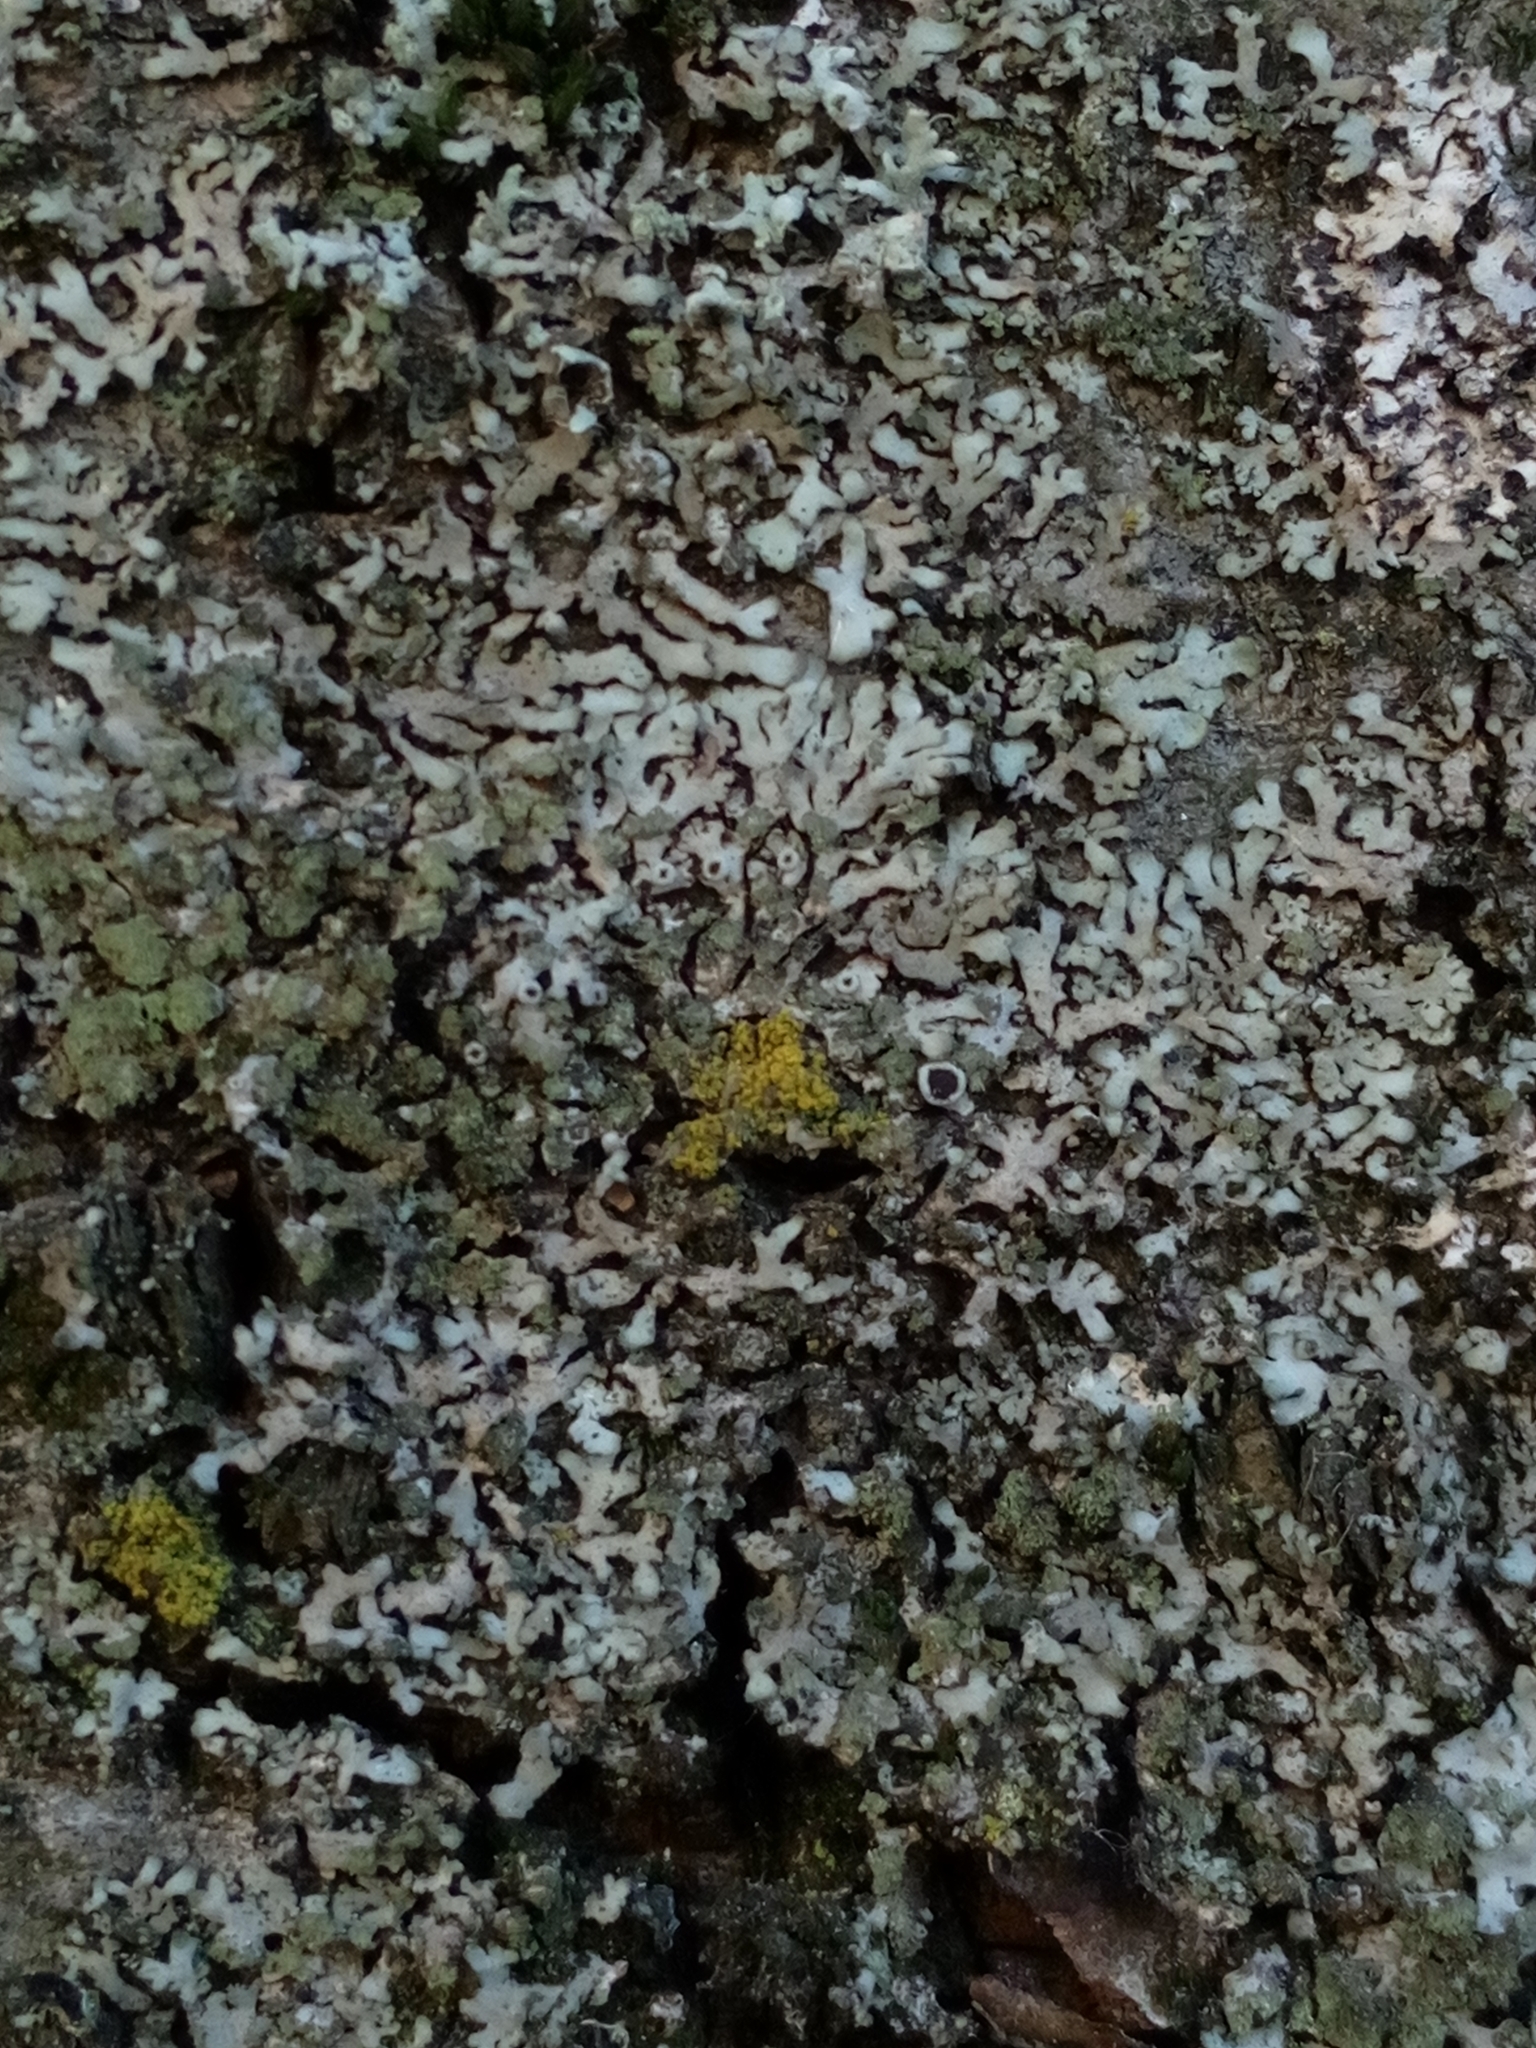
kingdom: Fungi
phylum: Ascomycota
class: Lecanoromycetes
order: Caliciales
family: Physciaceae
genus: Phaeophyscia
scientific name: Phaeophyscia orbicularis
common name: Mealy shadow lichen
